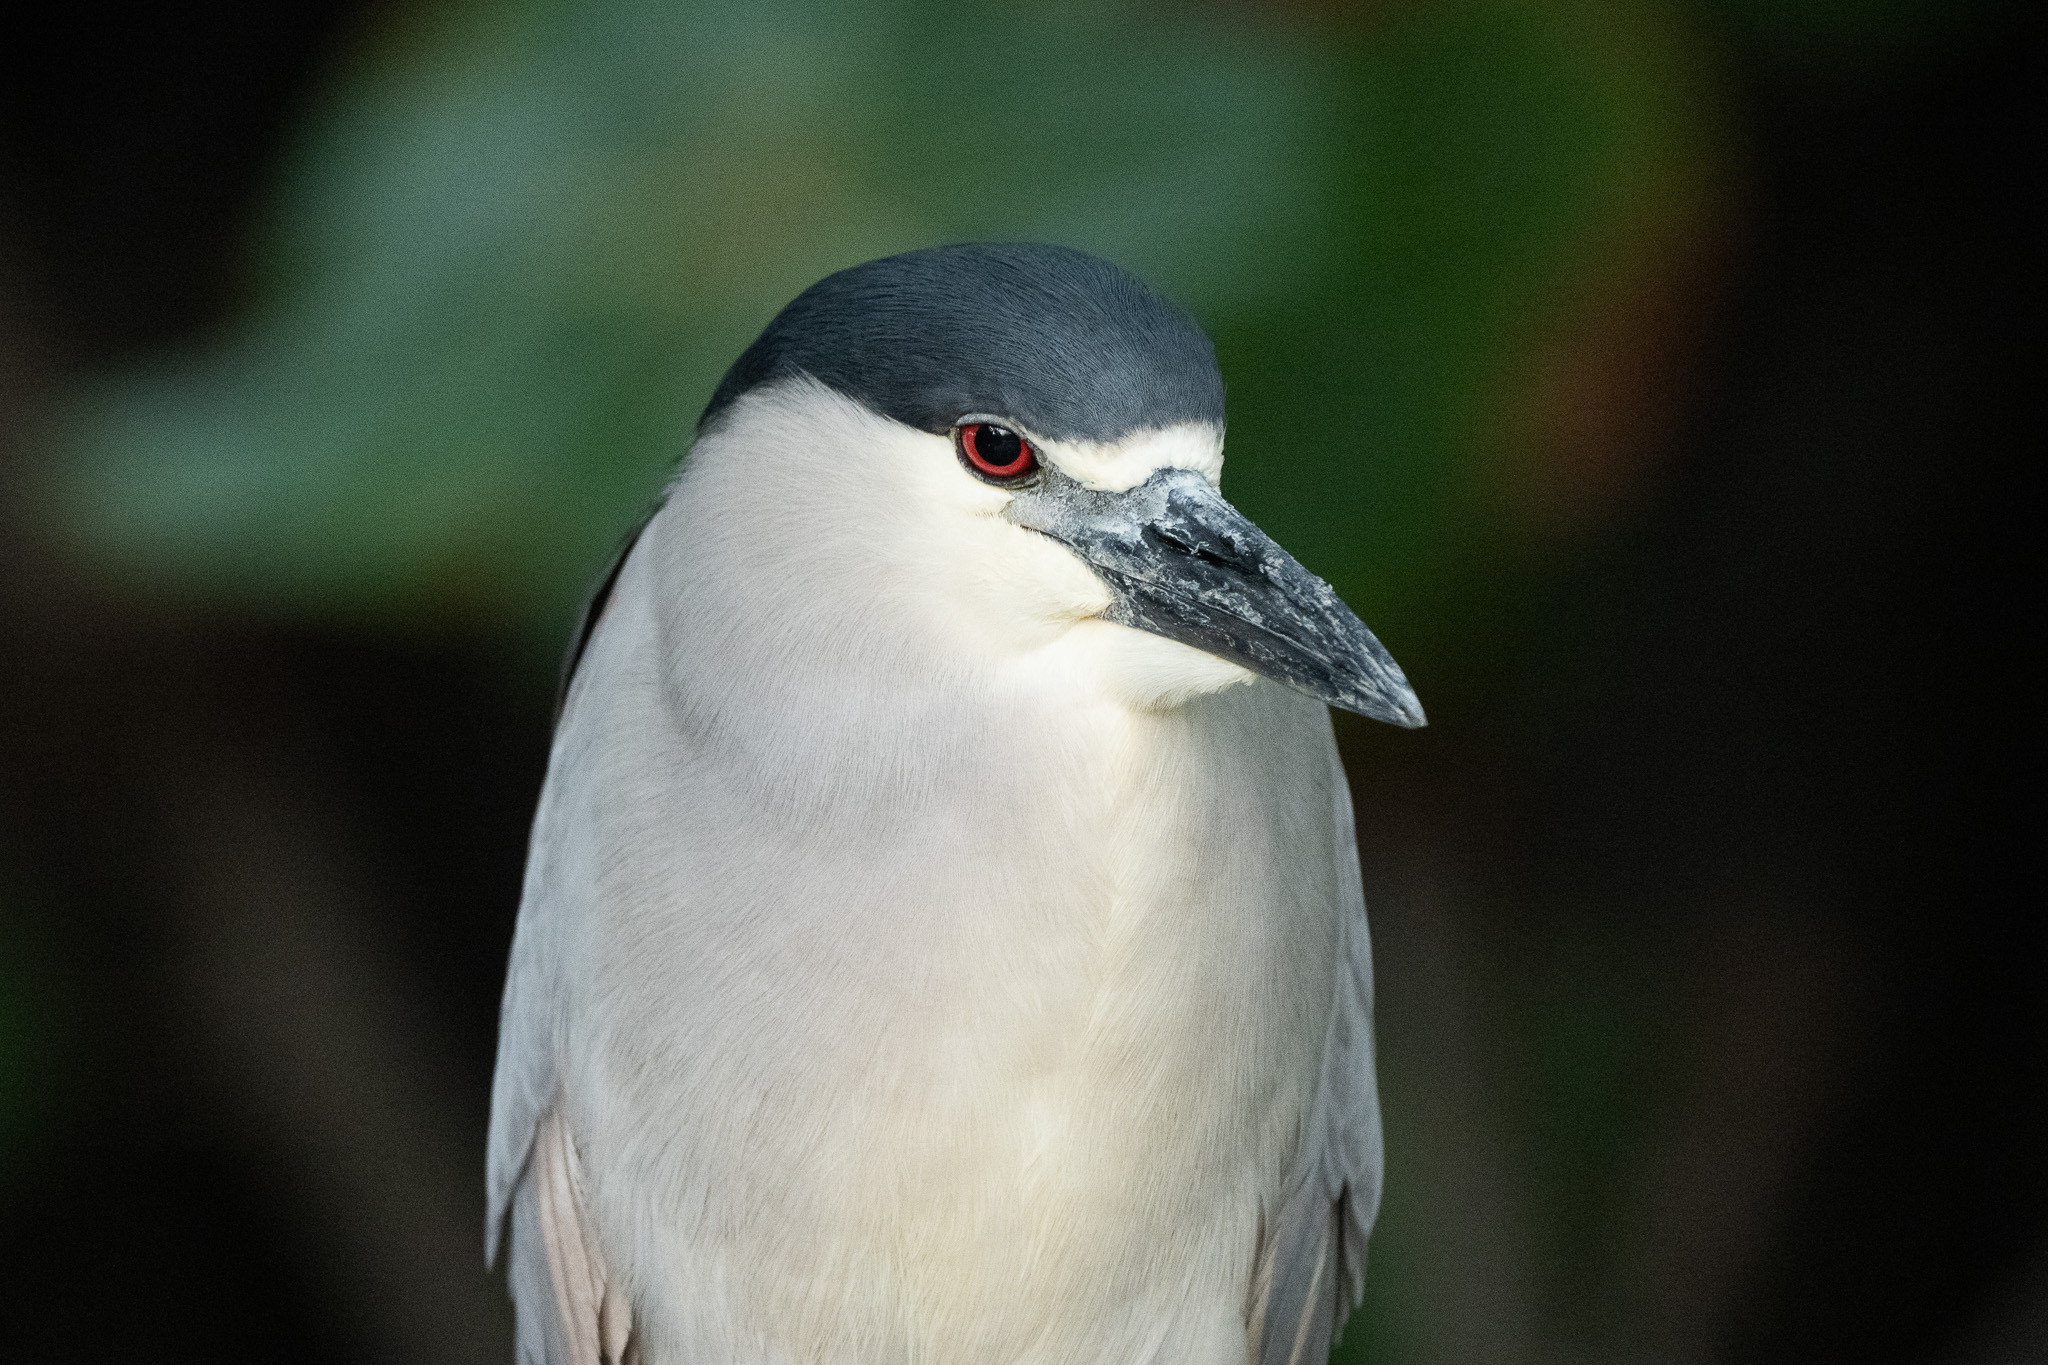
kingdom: Animalia
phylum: Chordata
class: Aves
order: Pelecaniformes
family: Ardeidae
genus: Nycticorax
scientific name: Nycticorax nycticorax
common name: Black-crowned night heron
